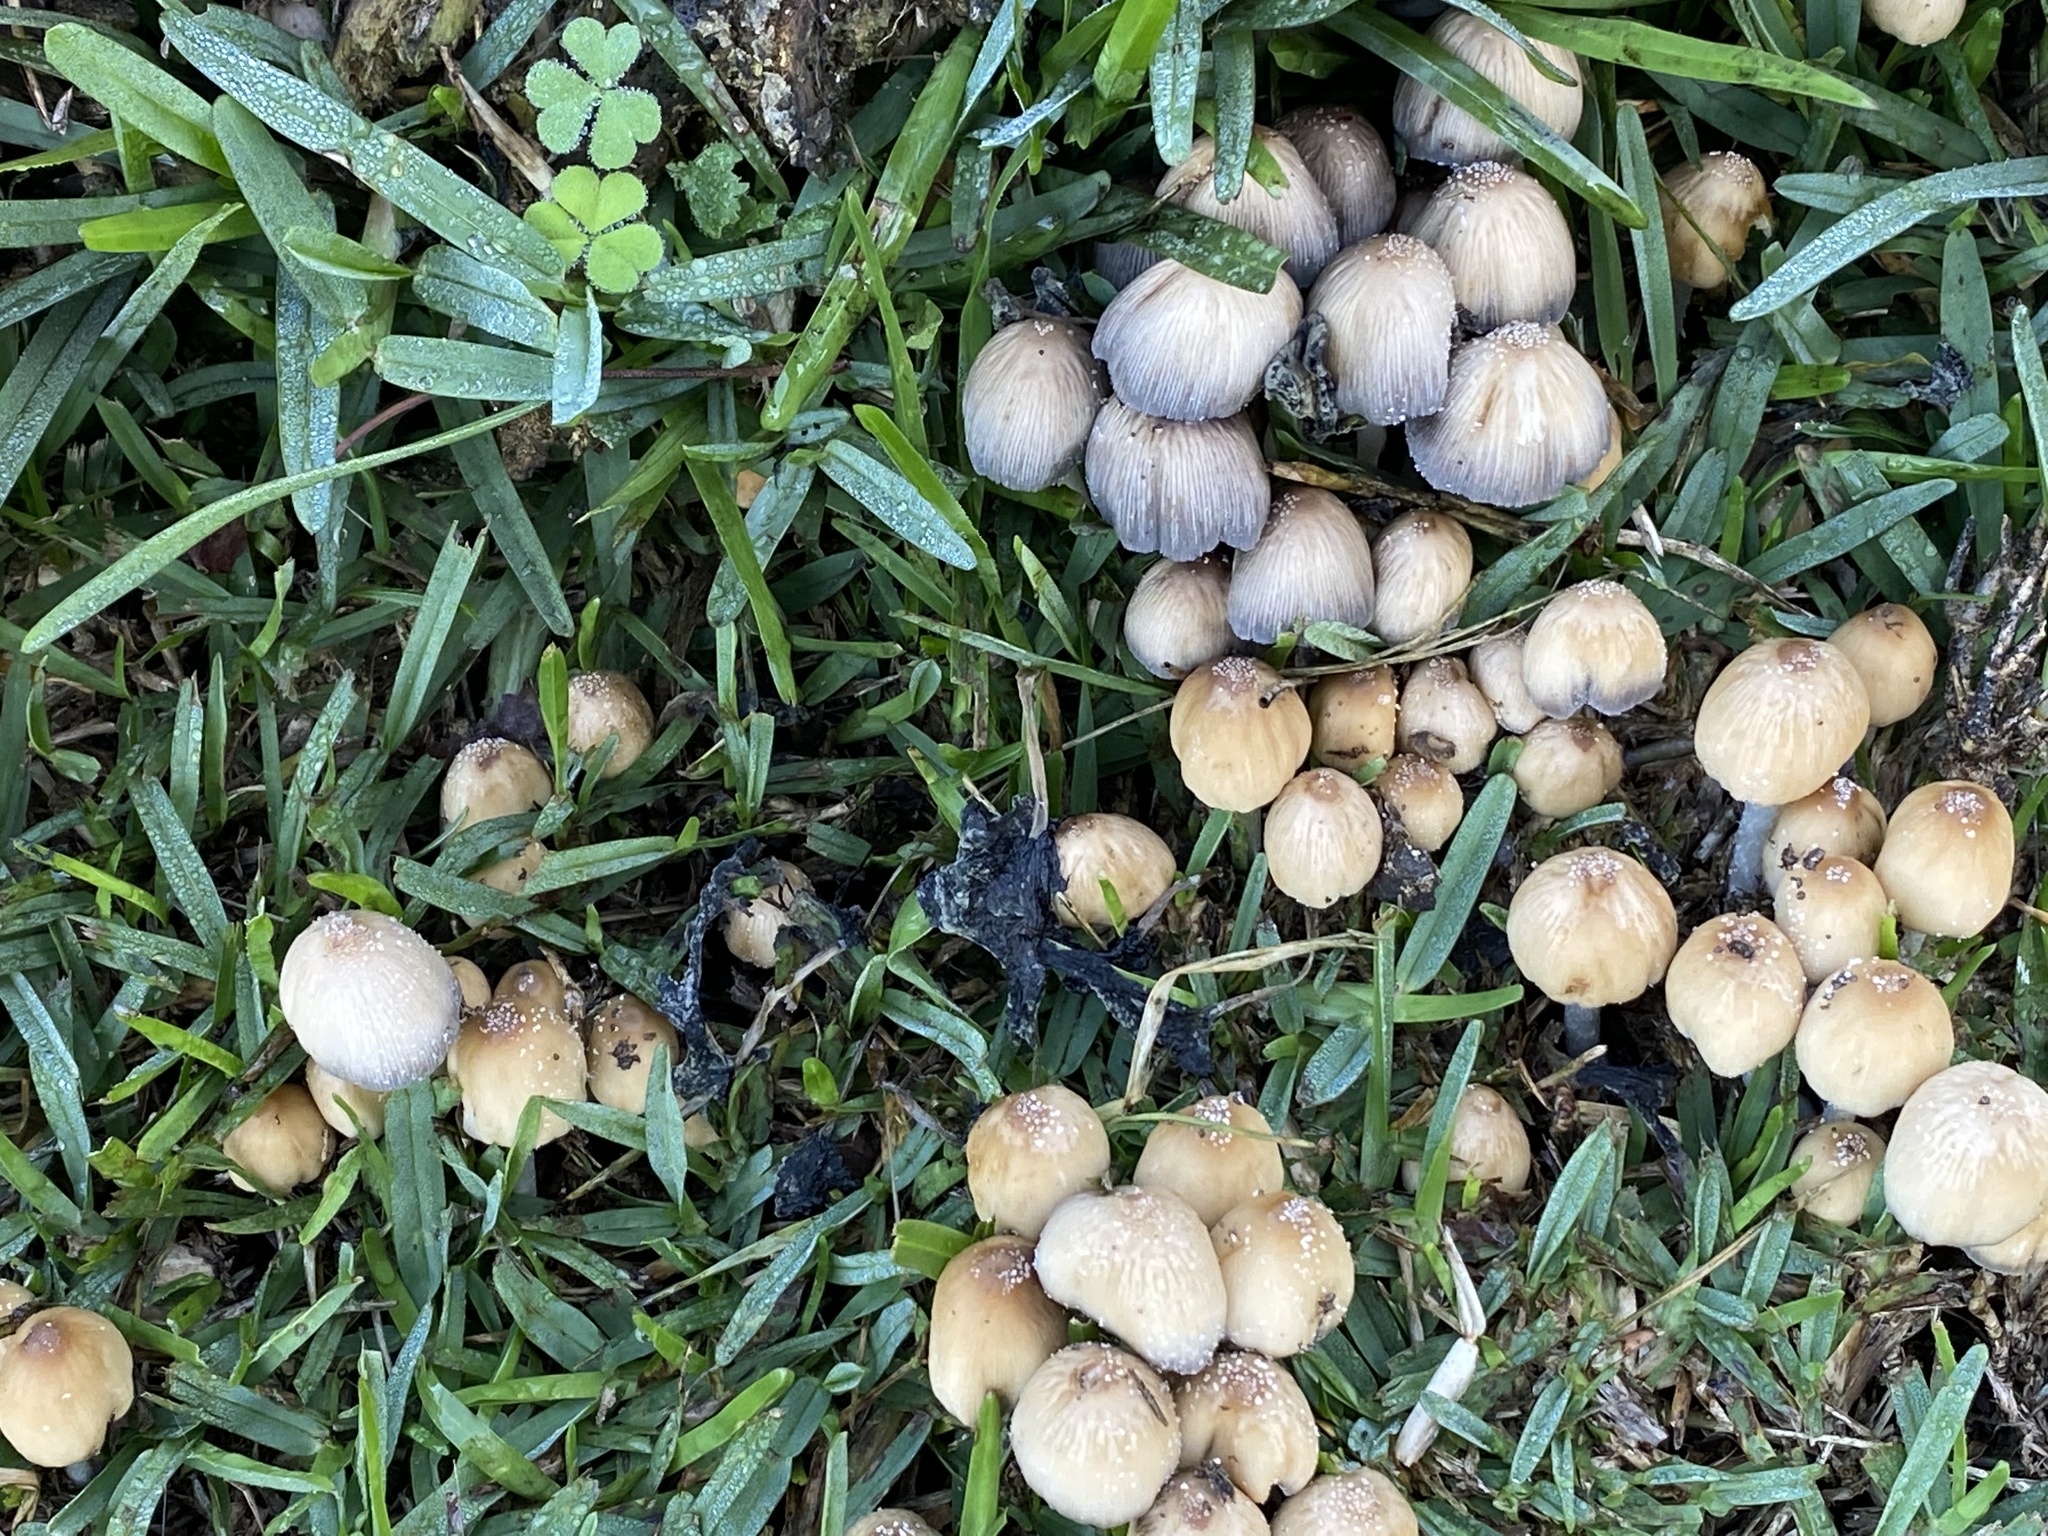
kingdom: Fungi
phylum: Basidiomycota
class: Agaricomycetes
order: Agaricales
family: Psathyrellaceae
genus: Coprinellus
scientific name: Coprinellus micaceus
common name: Glistening ink-cap
